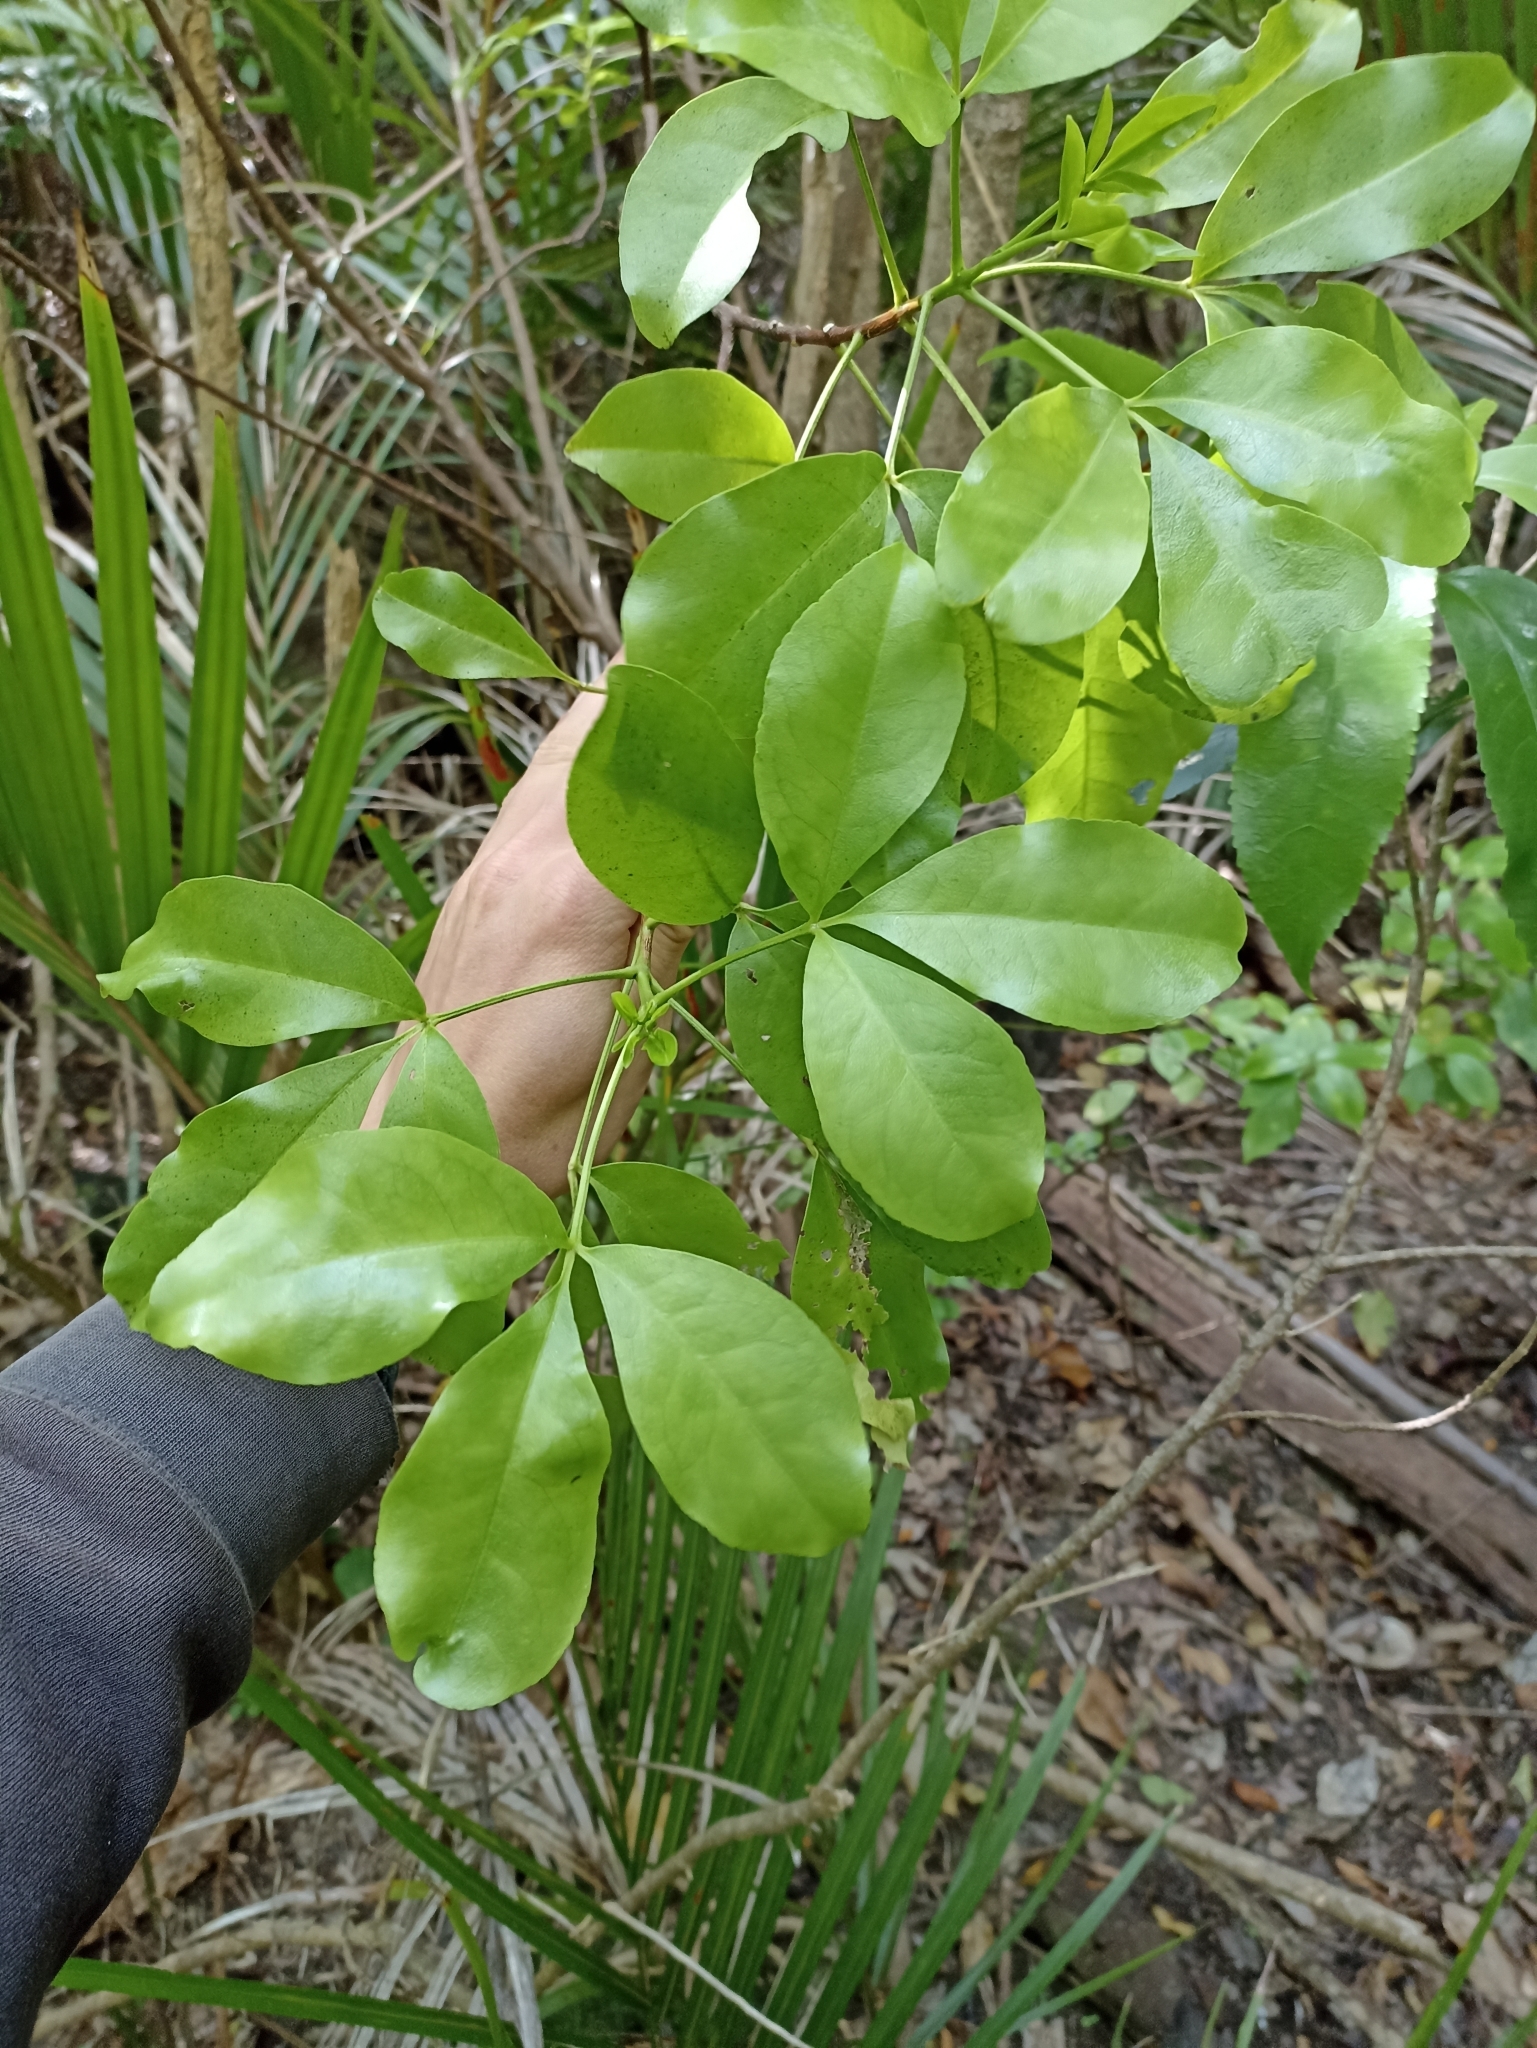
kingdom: Plantae
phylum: Tracheophyta
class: Magnoliopsida
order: Sapindales
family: Rutaceae
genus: Melicope
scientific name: Melicope ternata
